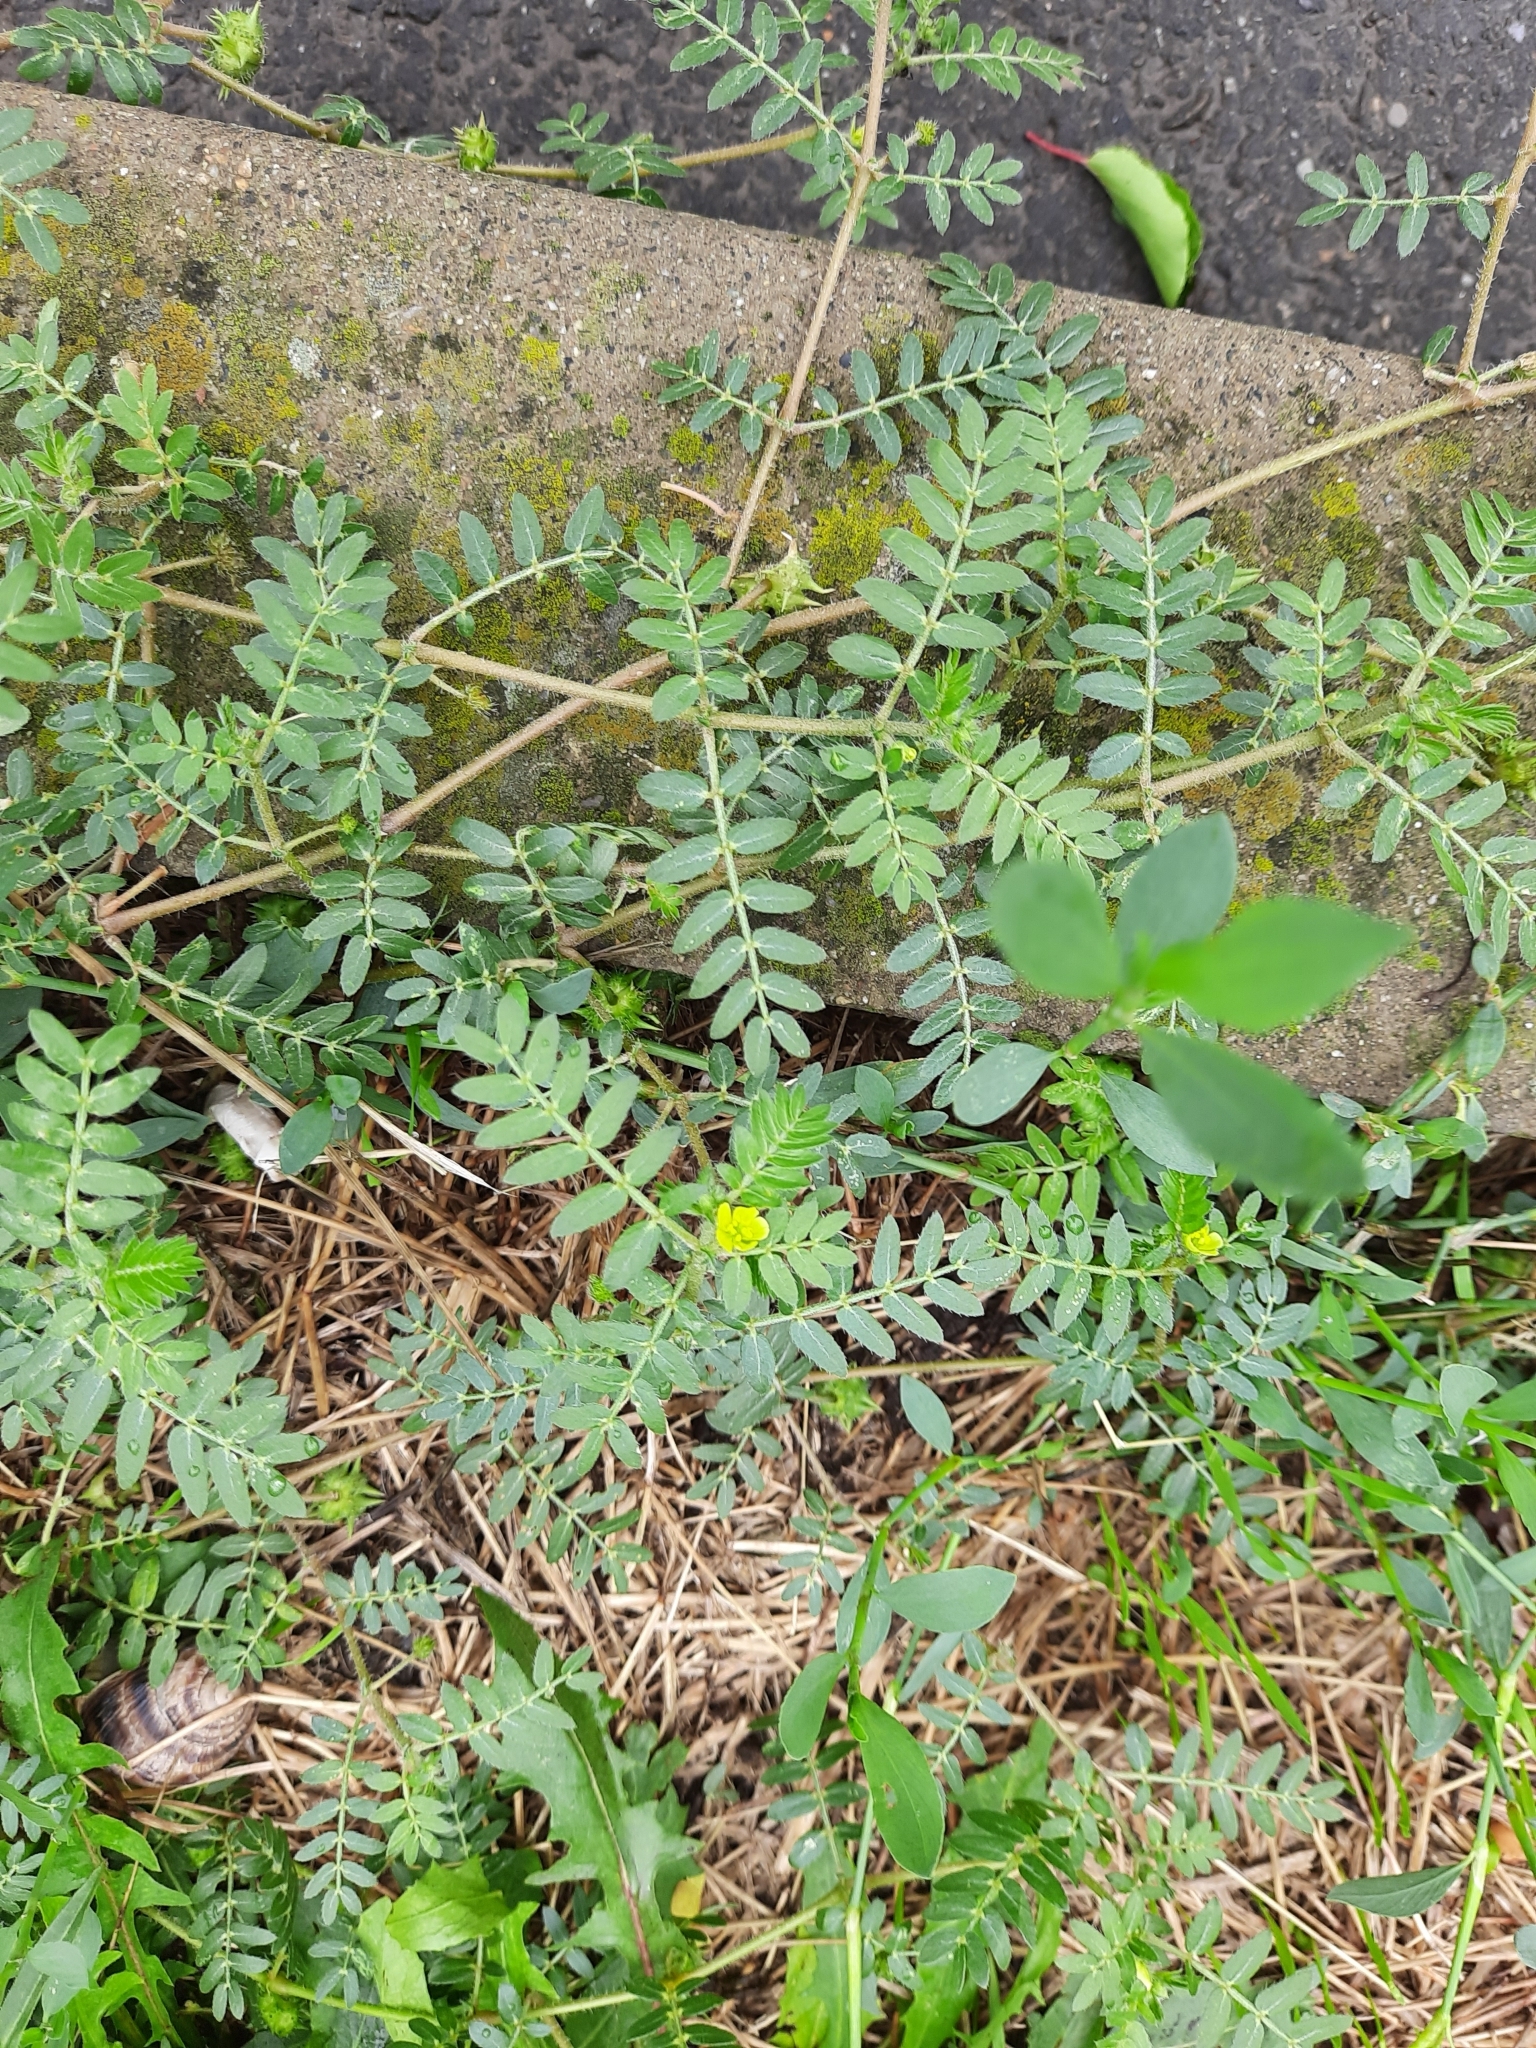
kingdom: Plantae
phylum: Tracheophyta
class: Magnoliopsida
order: Zygophyllales
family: Zygophyllaceae
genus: Tribulus
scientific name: Tribulus terrestris
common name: Puncturevine
